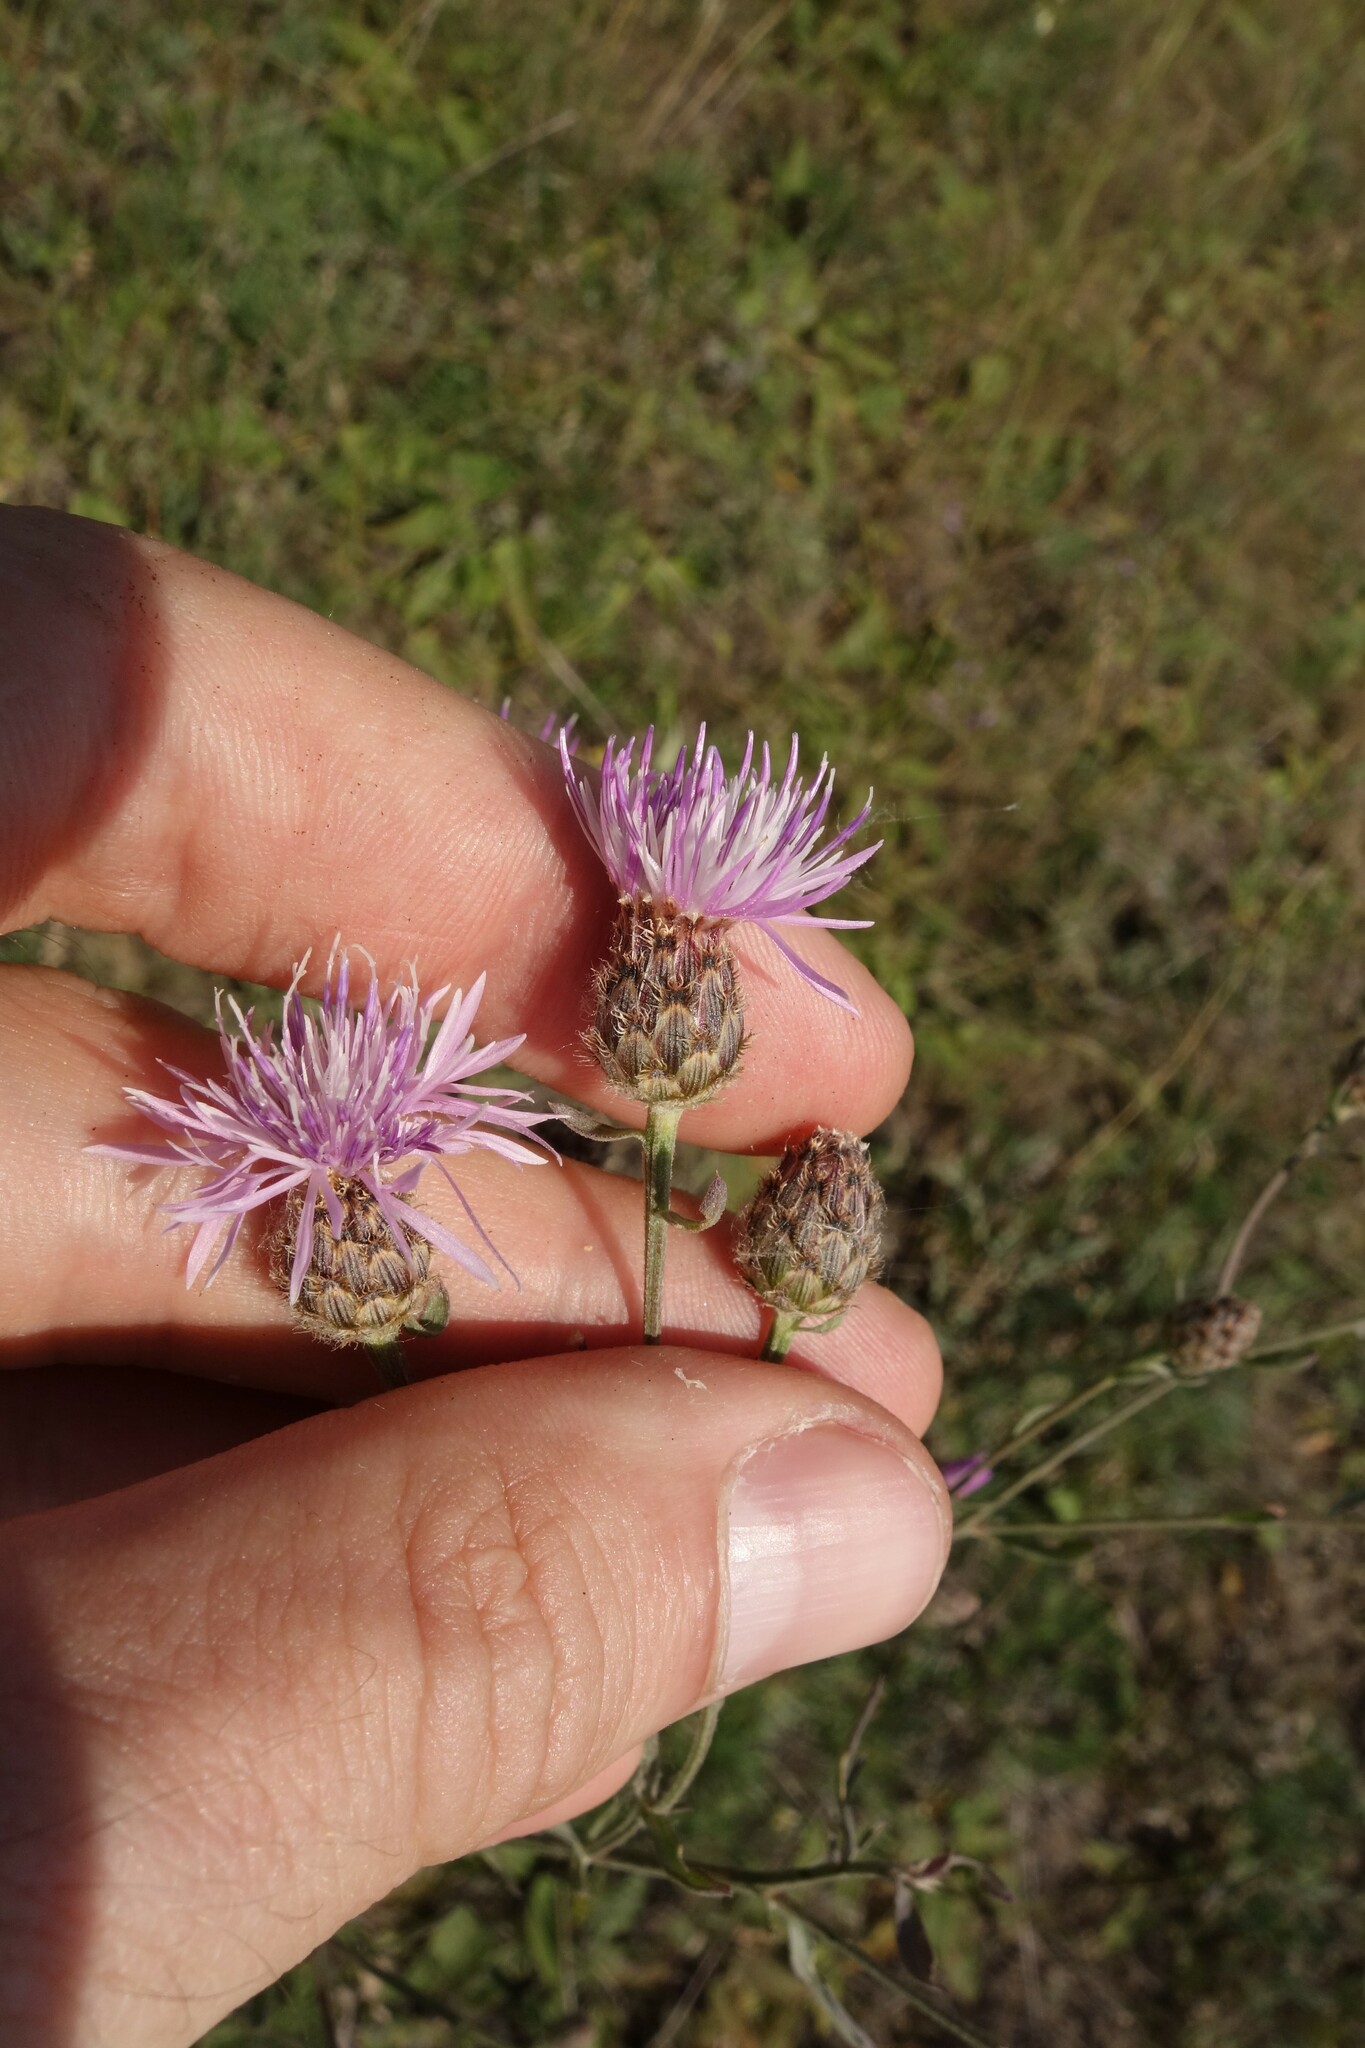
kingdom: Plantae
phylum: Tracheophyta
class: Magnoliopsida
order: Asterales
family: Asteraceae
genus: Centaurea
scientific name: Centaurea stoebe
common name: Spotted knapweed
